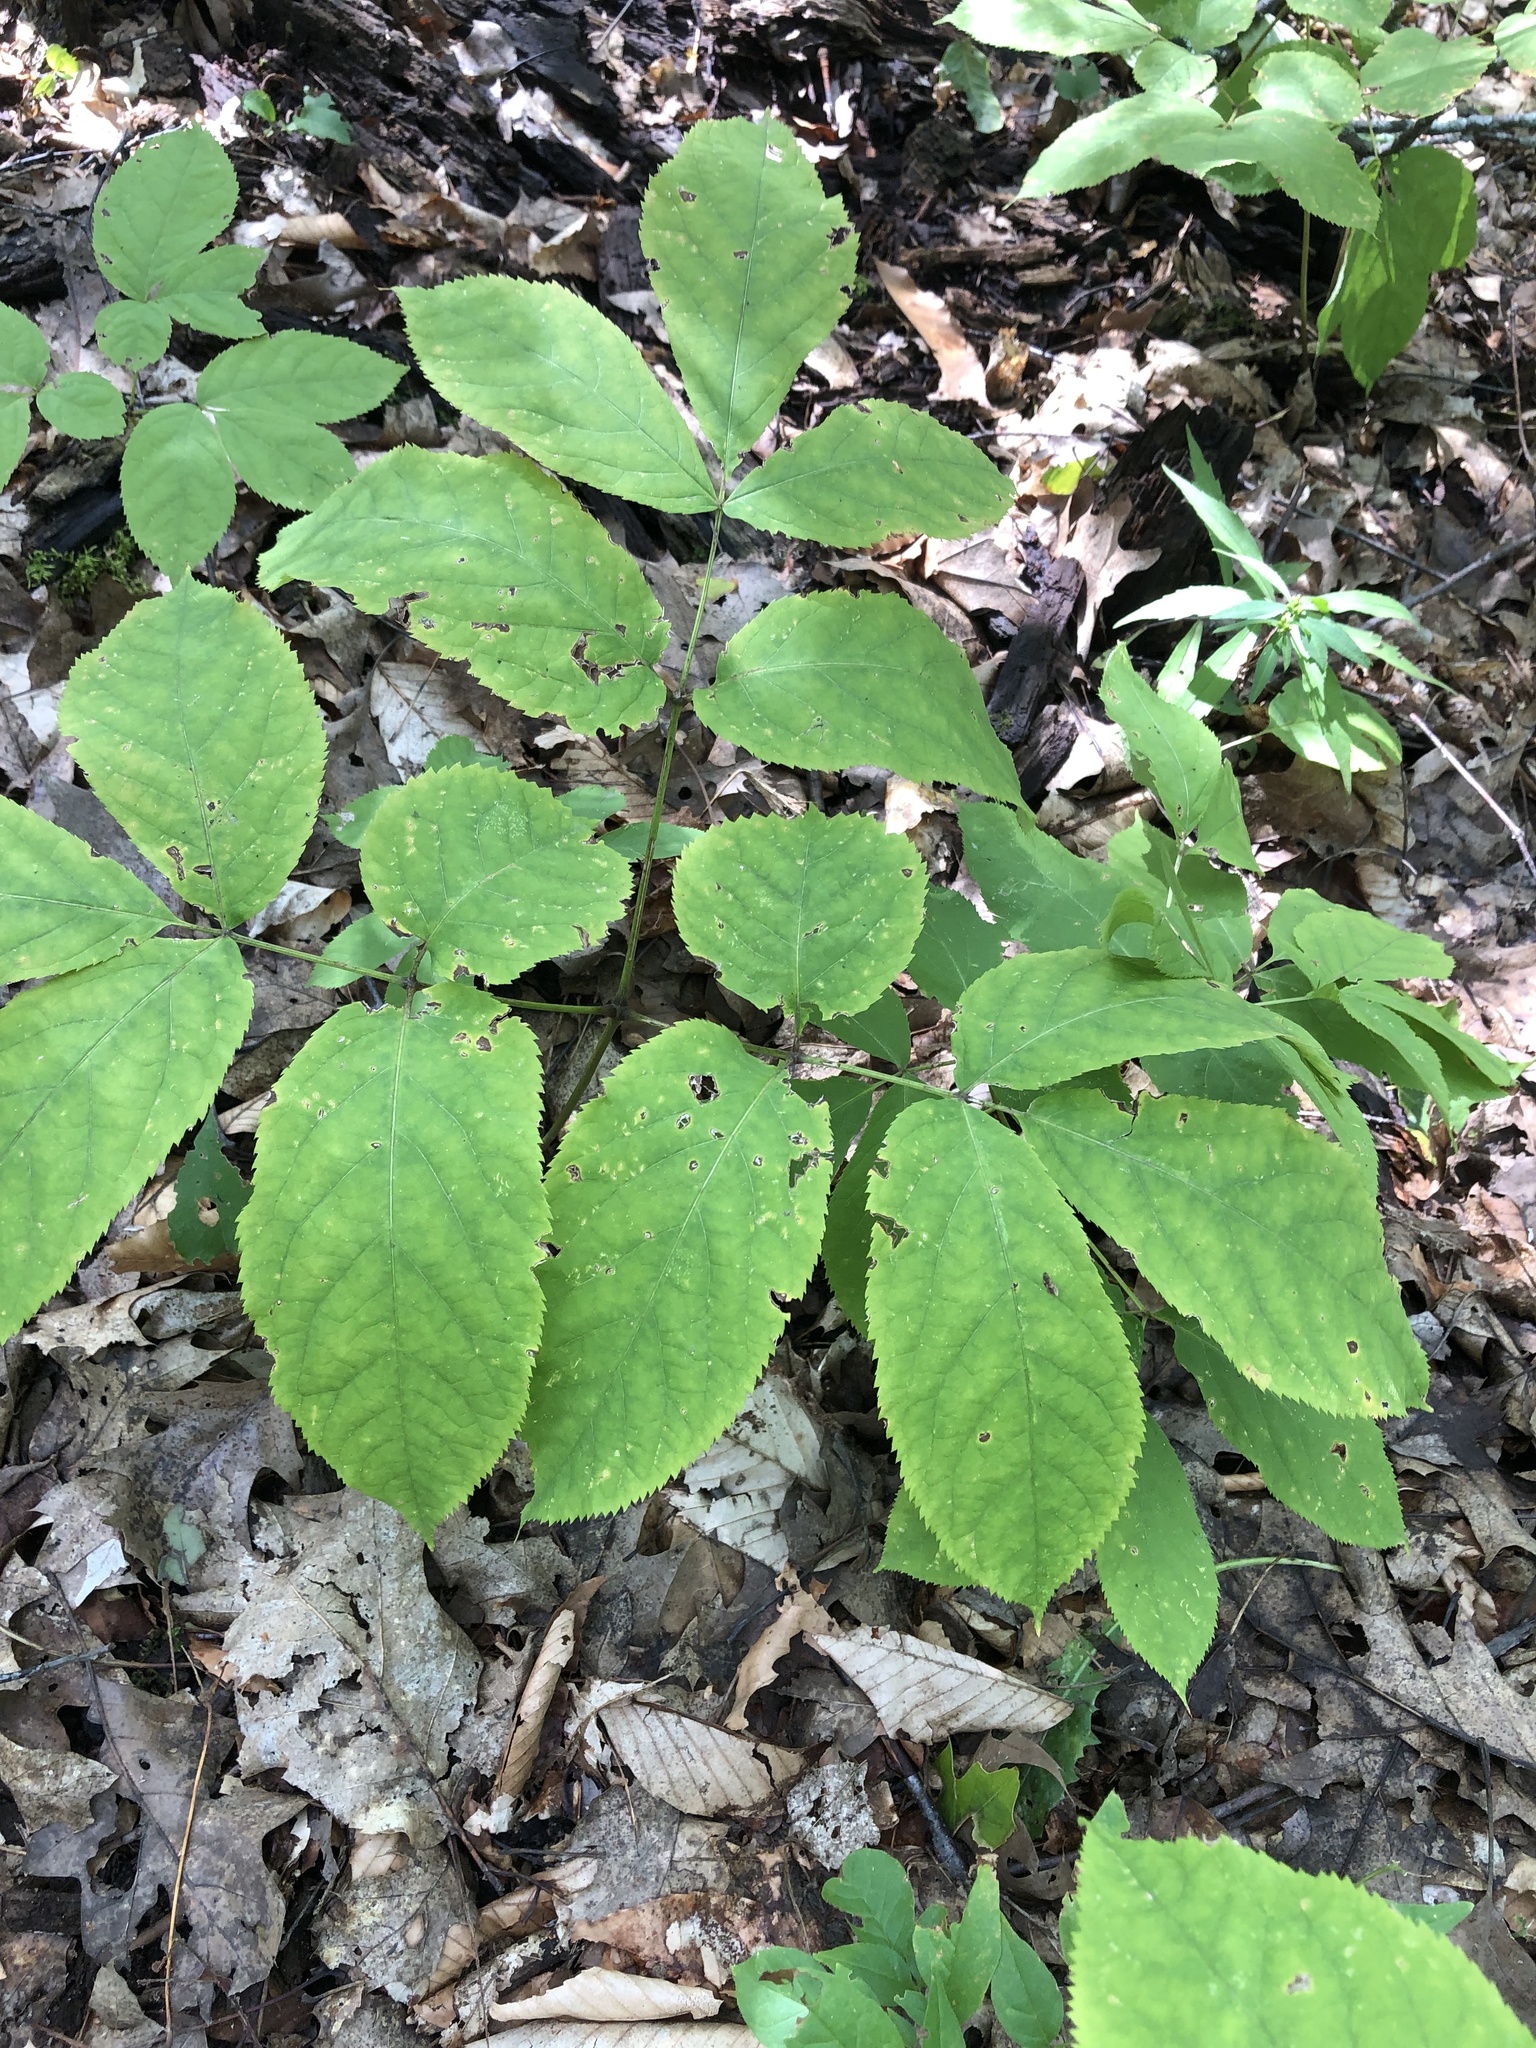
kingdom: Plantae
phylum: Tracheophyta
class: Magnoliopsida
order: Apiales
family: Araliaceae
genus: Aralia
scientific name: Aralia nudicaulis
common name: Wild sarsaparilla
